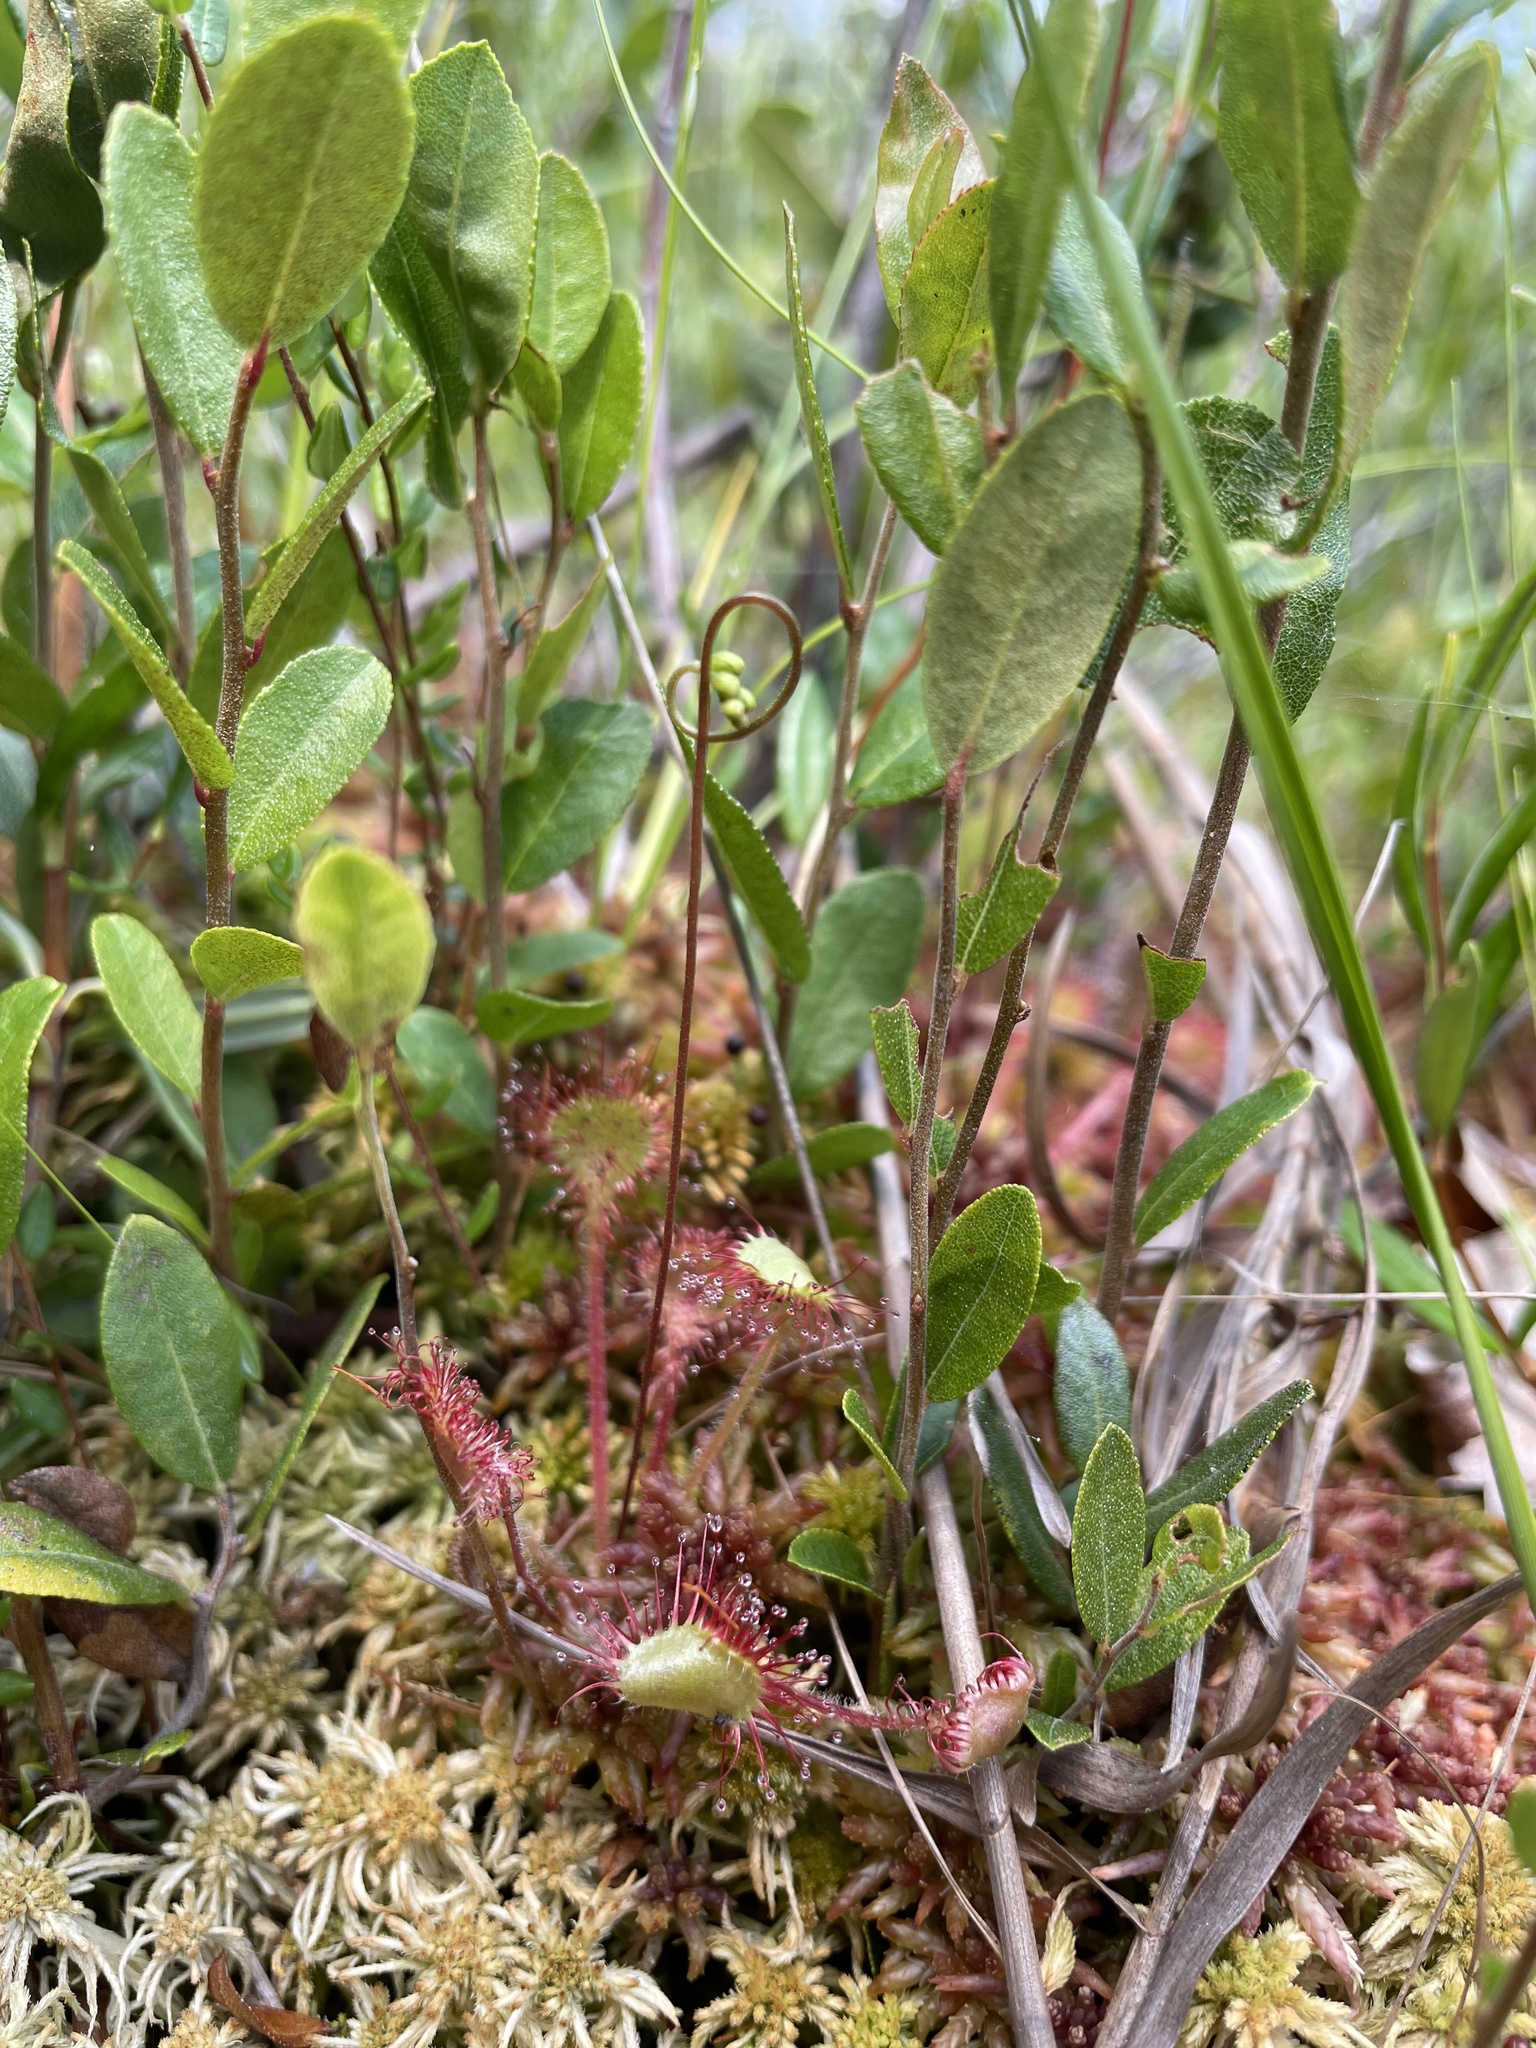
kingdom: Plantae
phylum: Tracheophyta
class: Magnoliopsida
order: Caryophyllales
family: Droseraceae
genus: Drosera
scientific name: Drosera rotundifolia
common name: Round-leaved sundew
